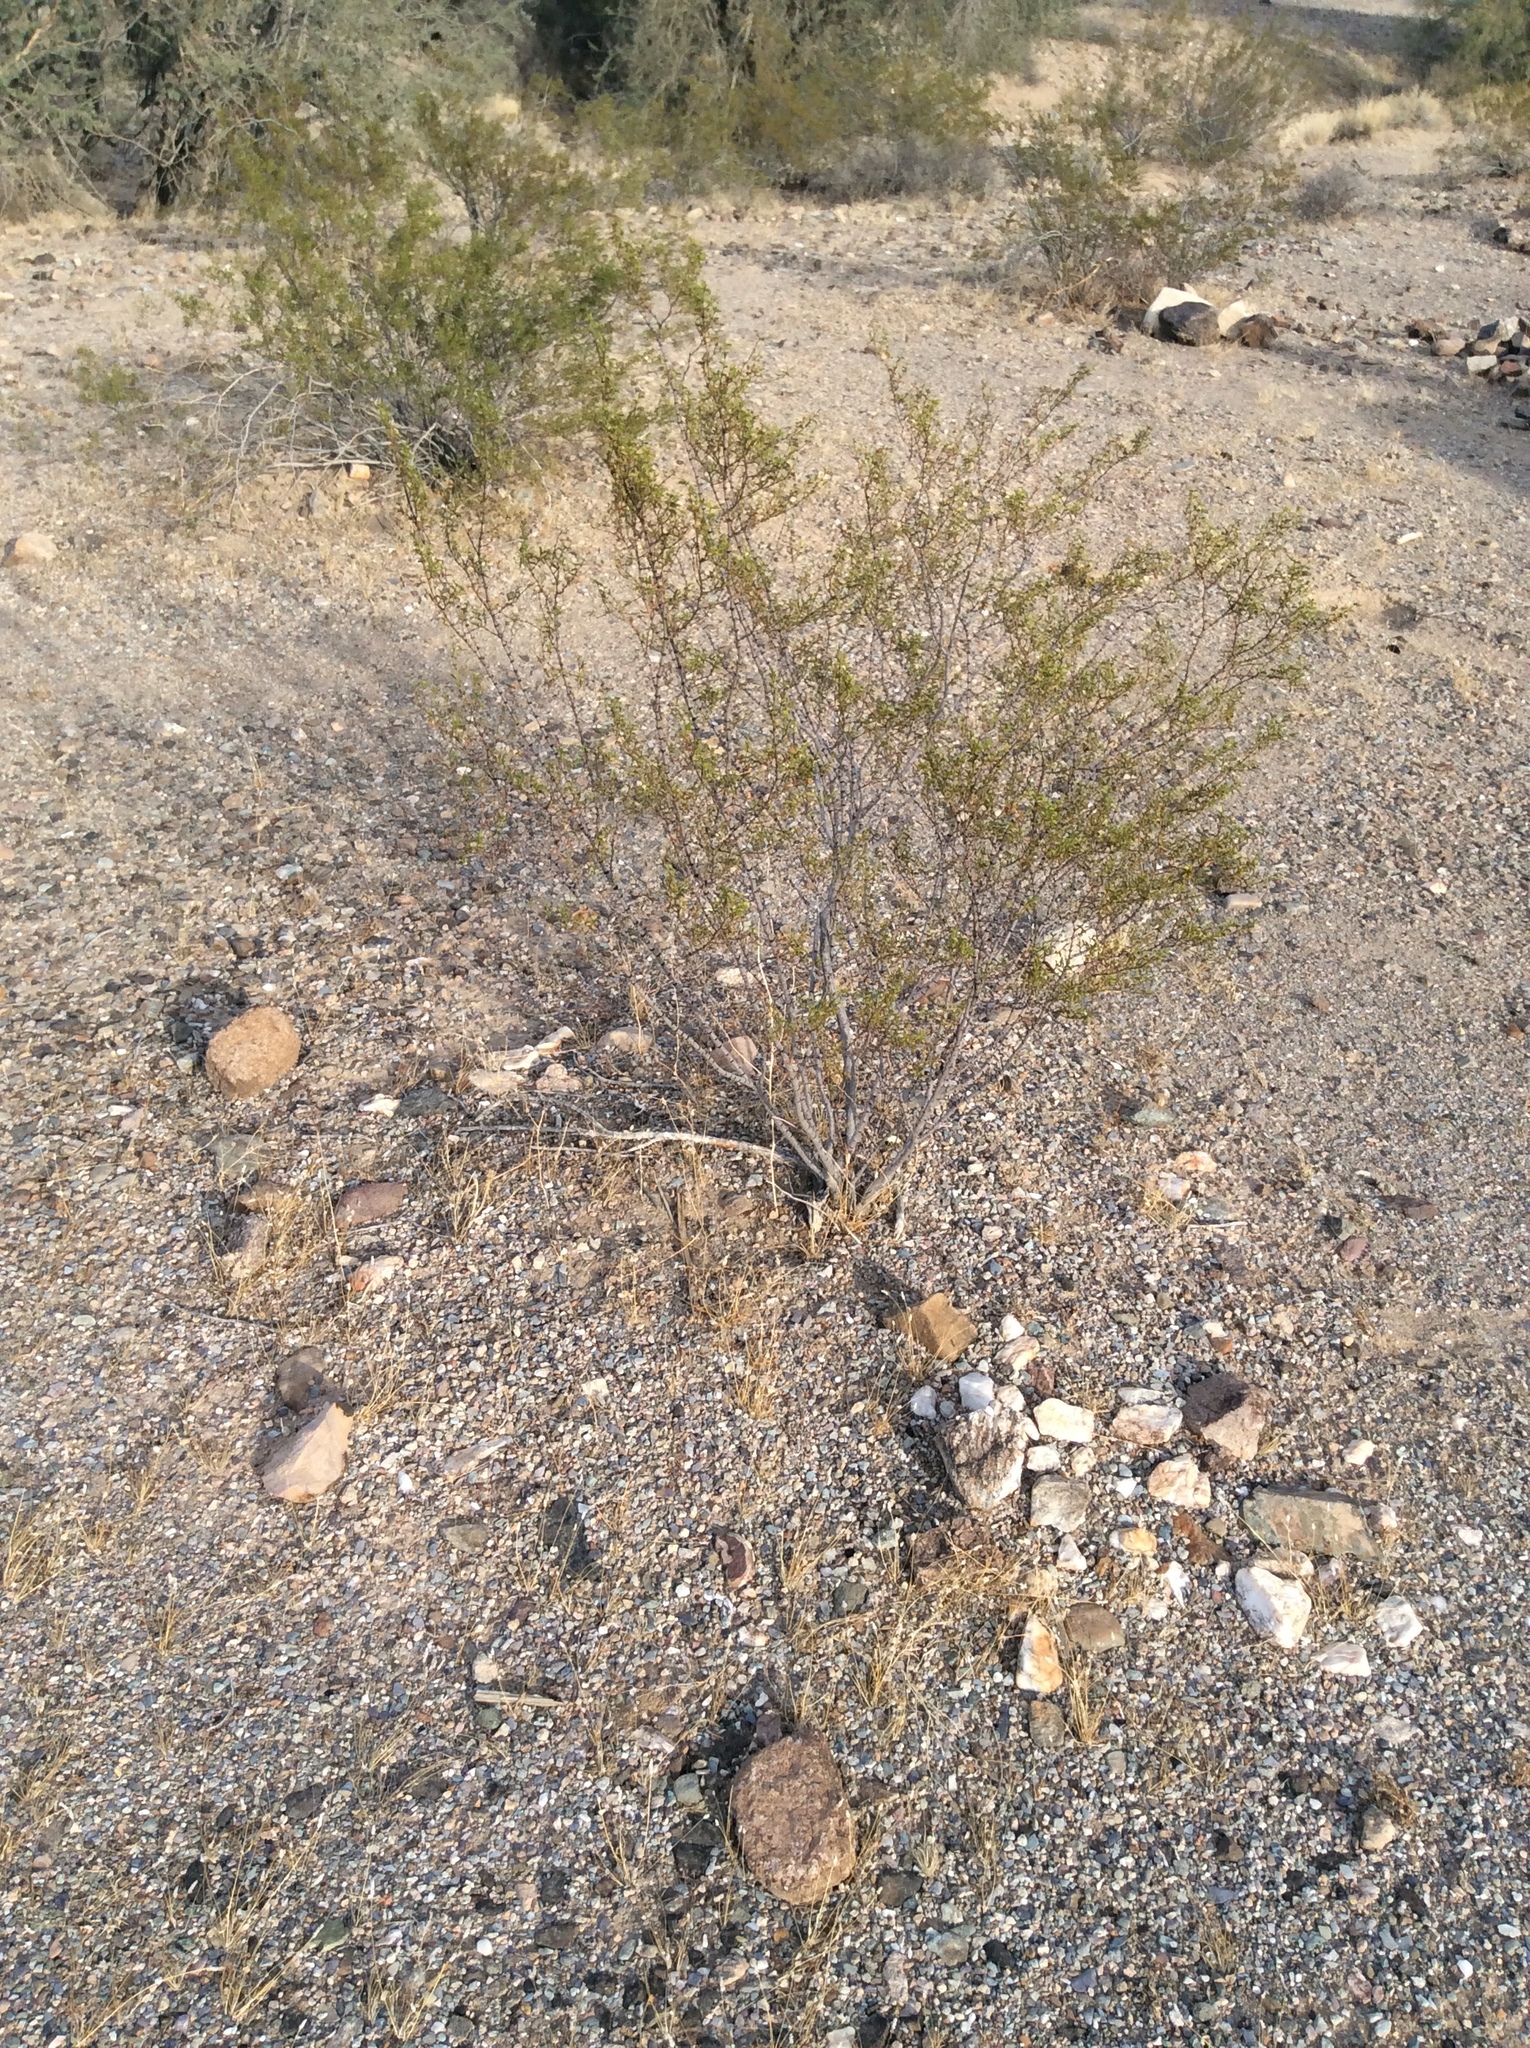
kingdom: Plantae
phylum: Tracheophyta
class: Magnoliopsida
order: Zygophyllales
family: Zygophyllaceae
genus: Larrea
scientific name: Larrea tridentata
